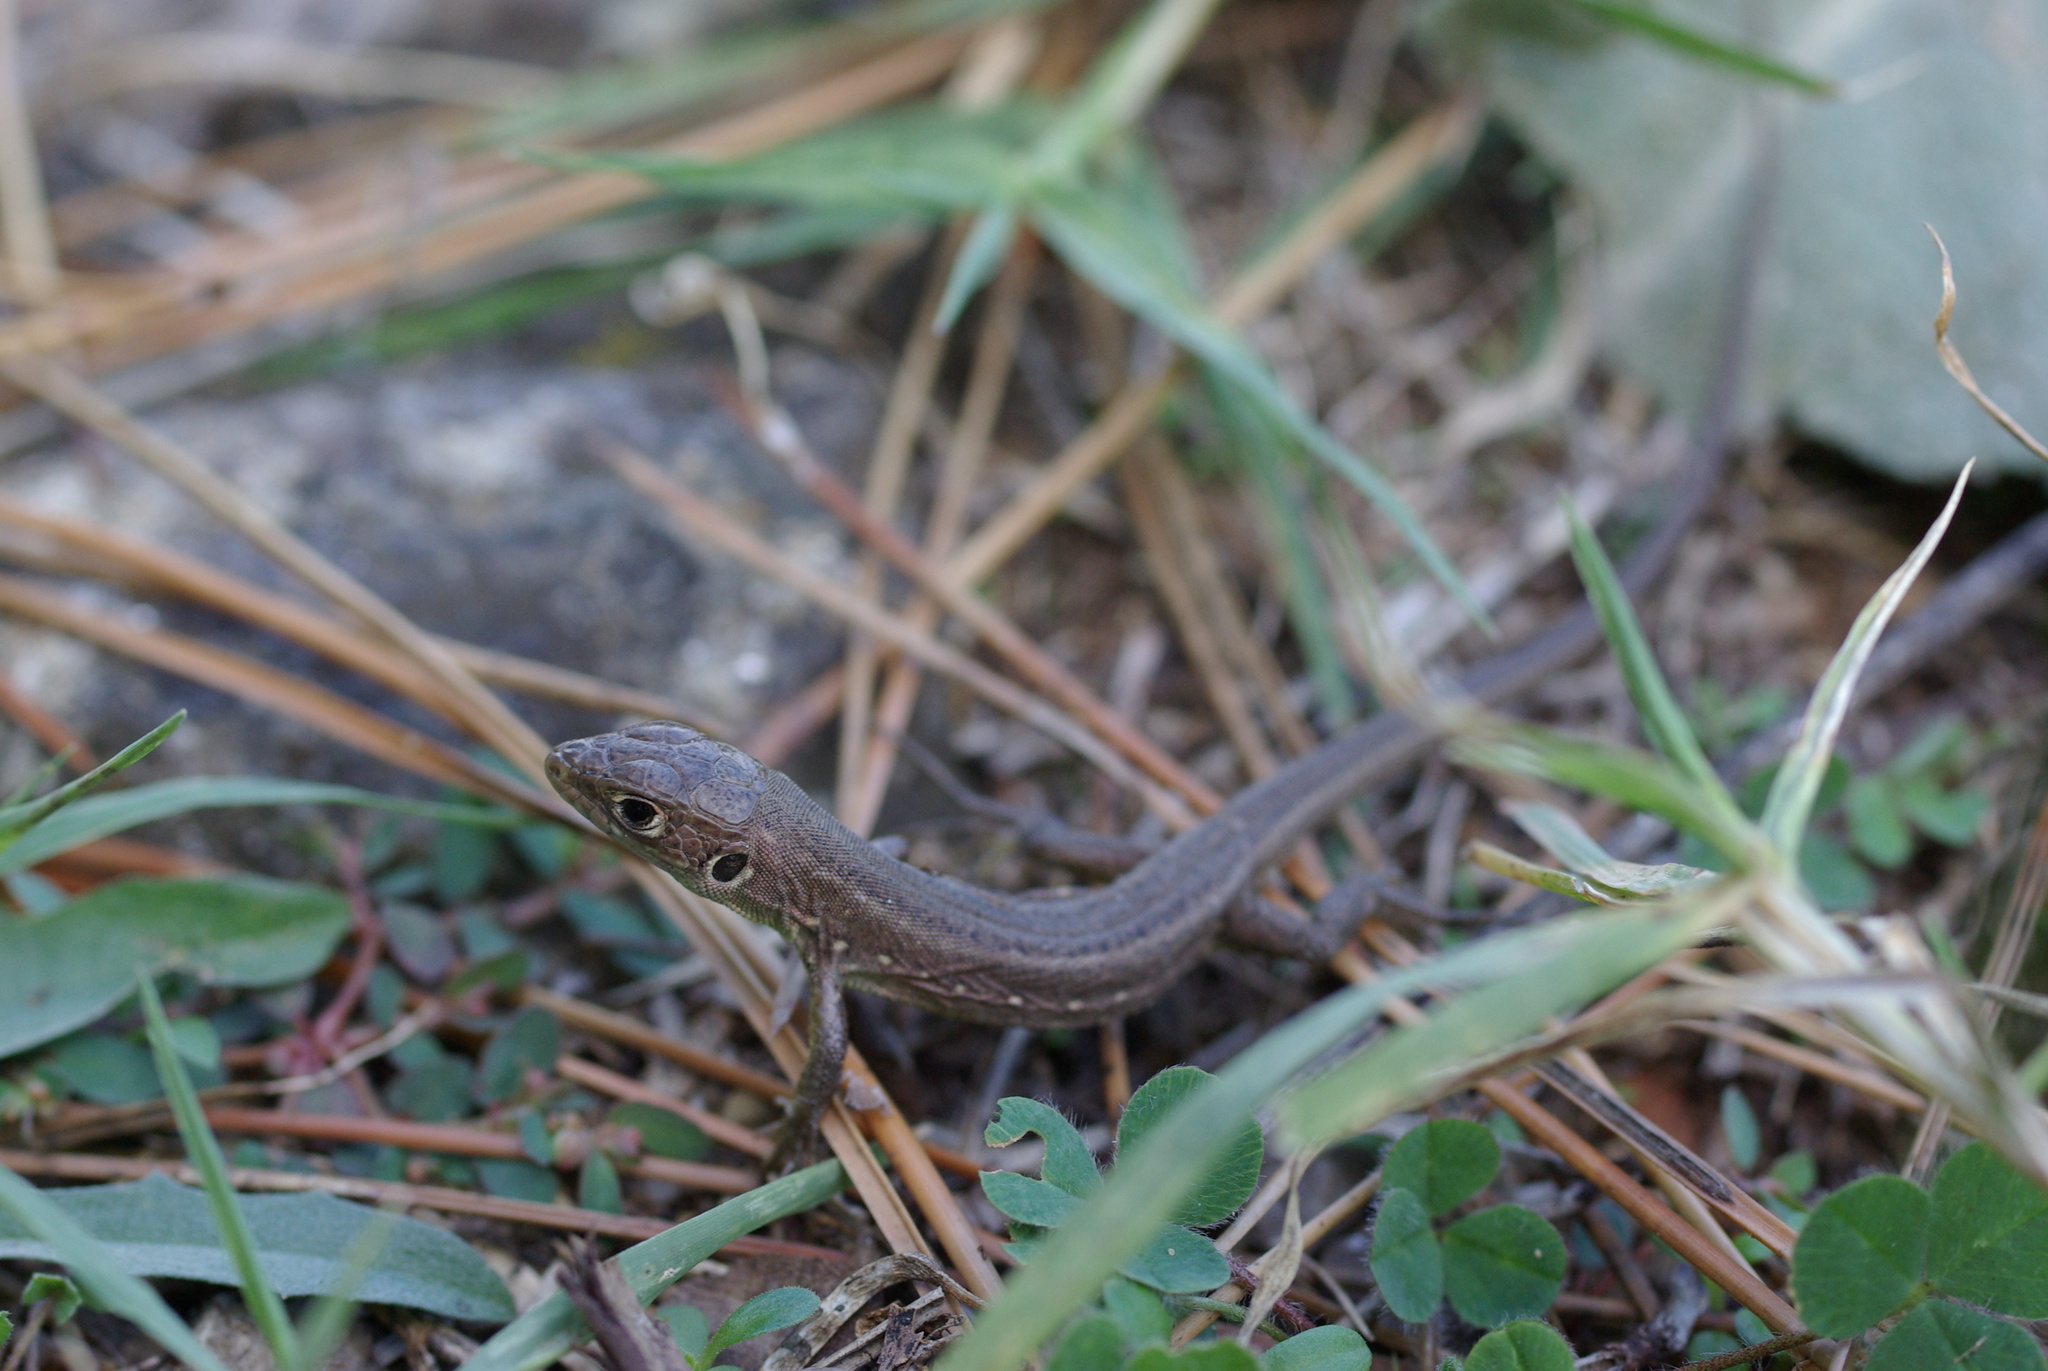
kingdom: Animalia
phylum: Chordata
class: Squamata
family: Lacertidae
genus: Lacerta
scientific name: Lacerta viridis
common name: European green lizard
